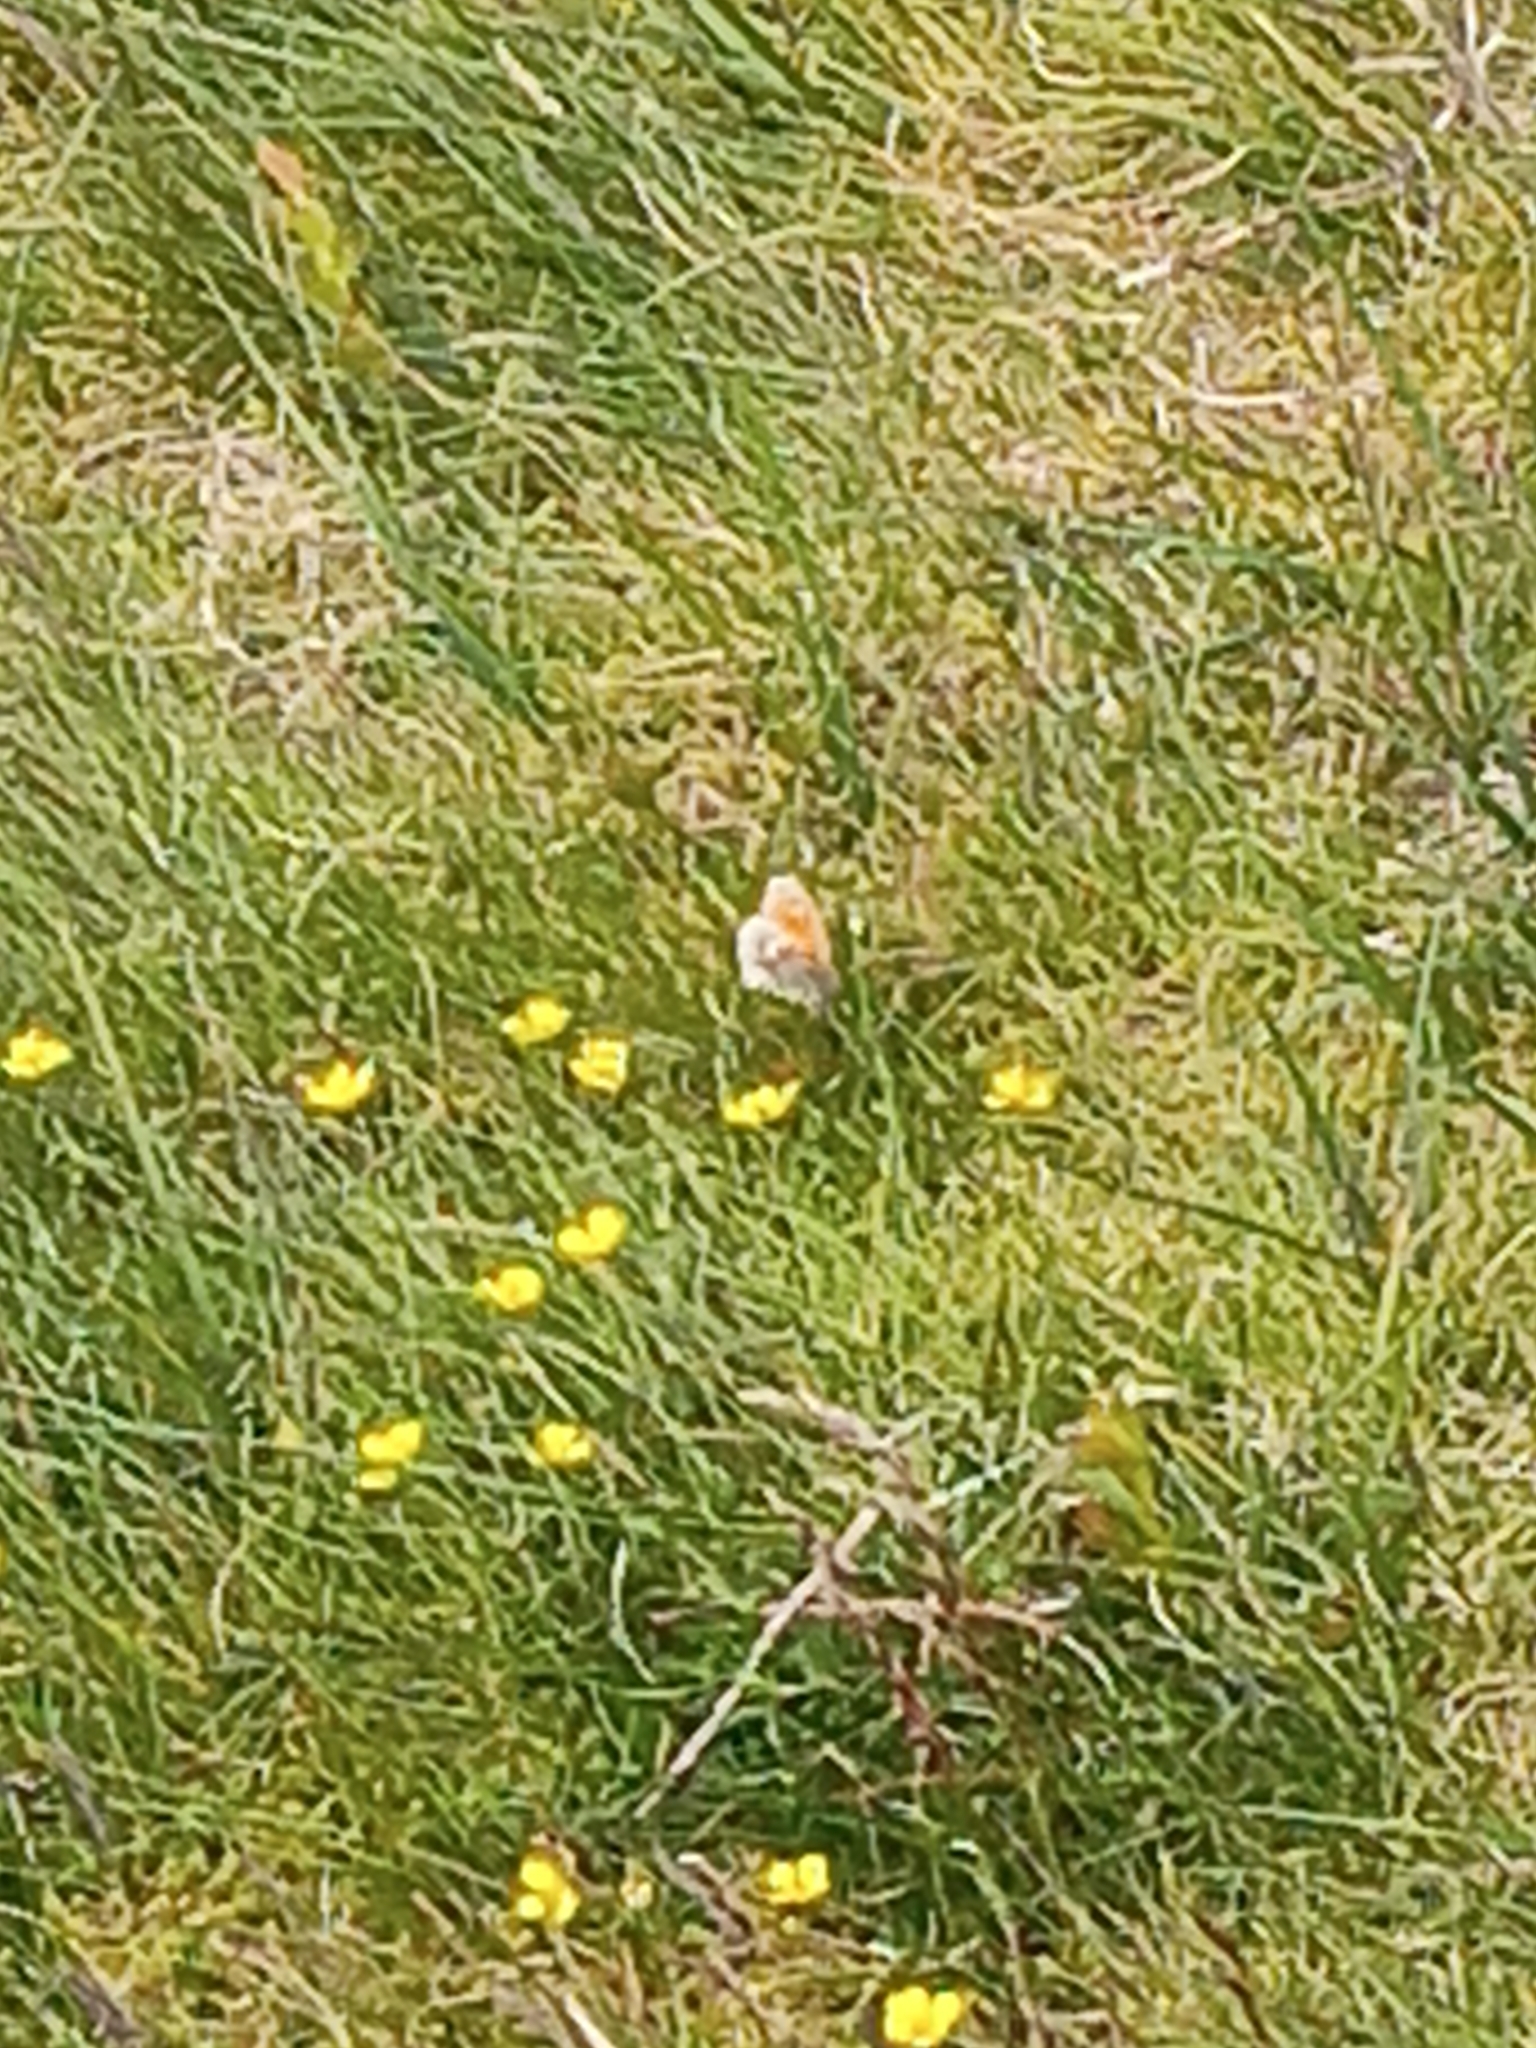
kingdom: Animalia
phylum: Arthropoda
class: Insecta
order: Lepidoptera
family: Nymphalidae
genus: Coenonympha
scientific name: Coenonympha pamphilus
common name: Small heath
